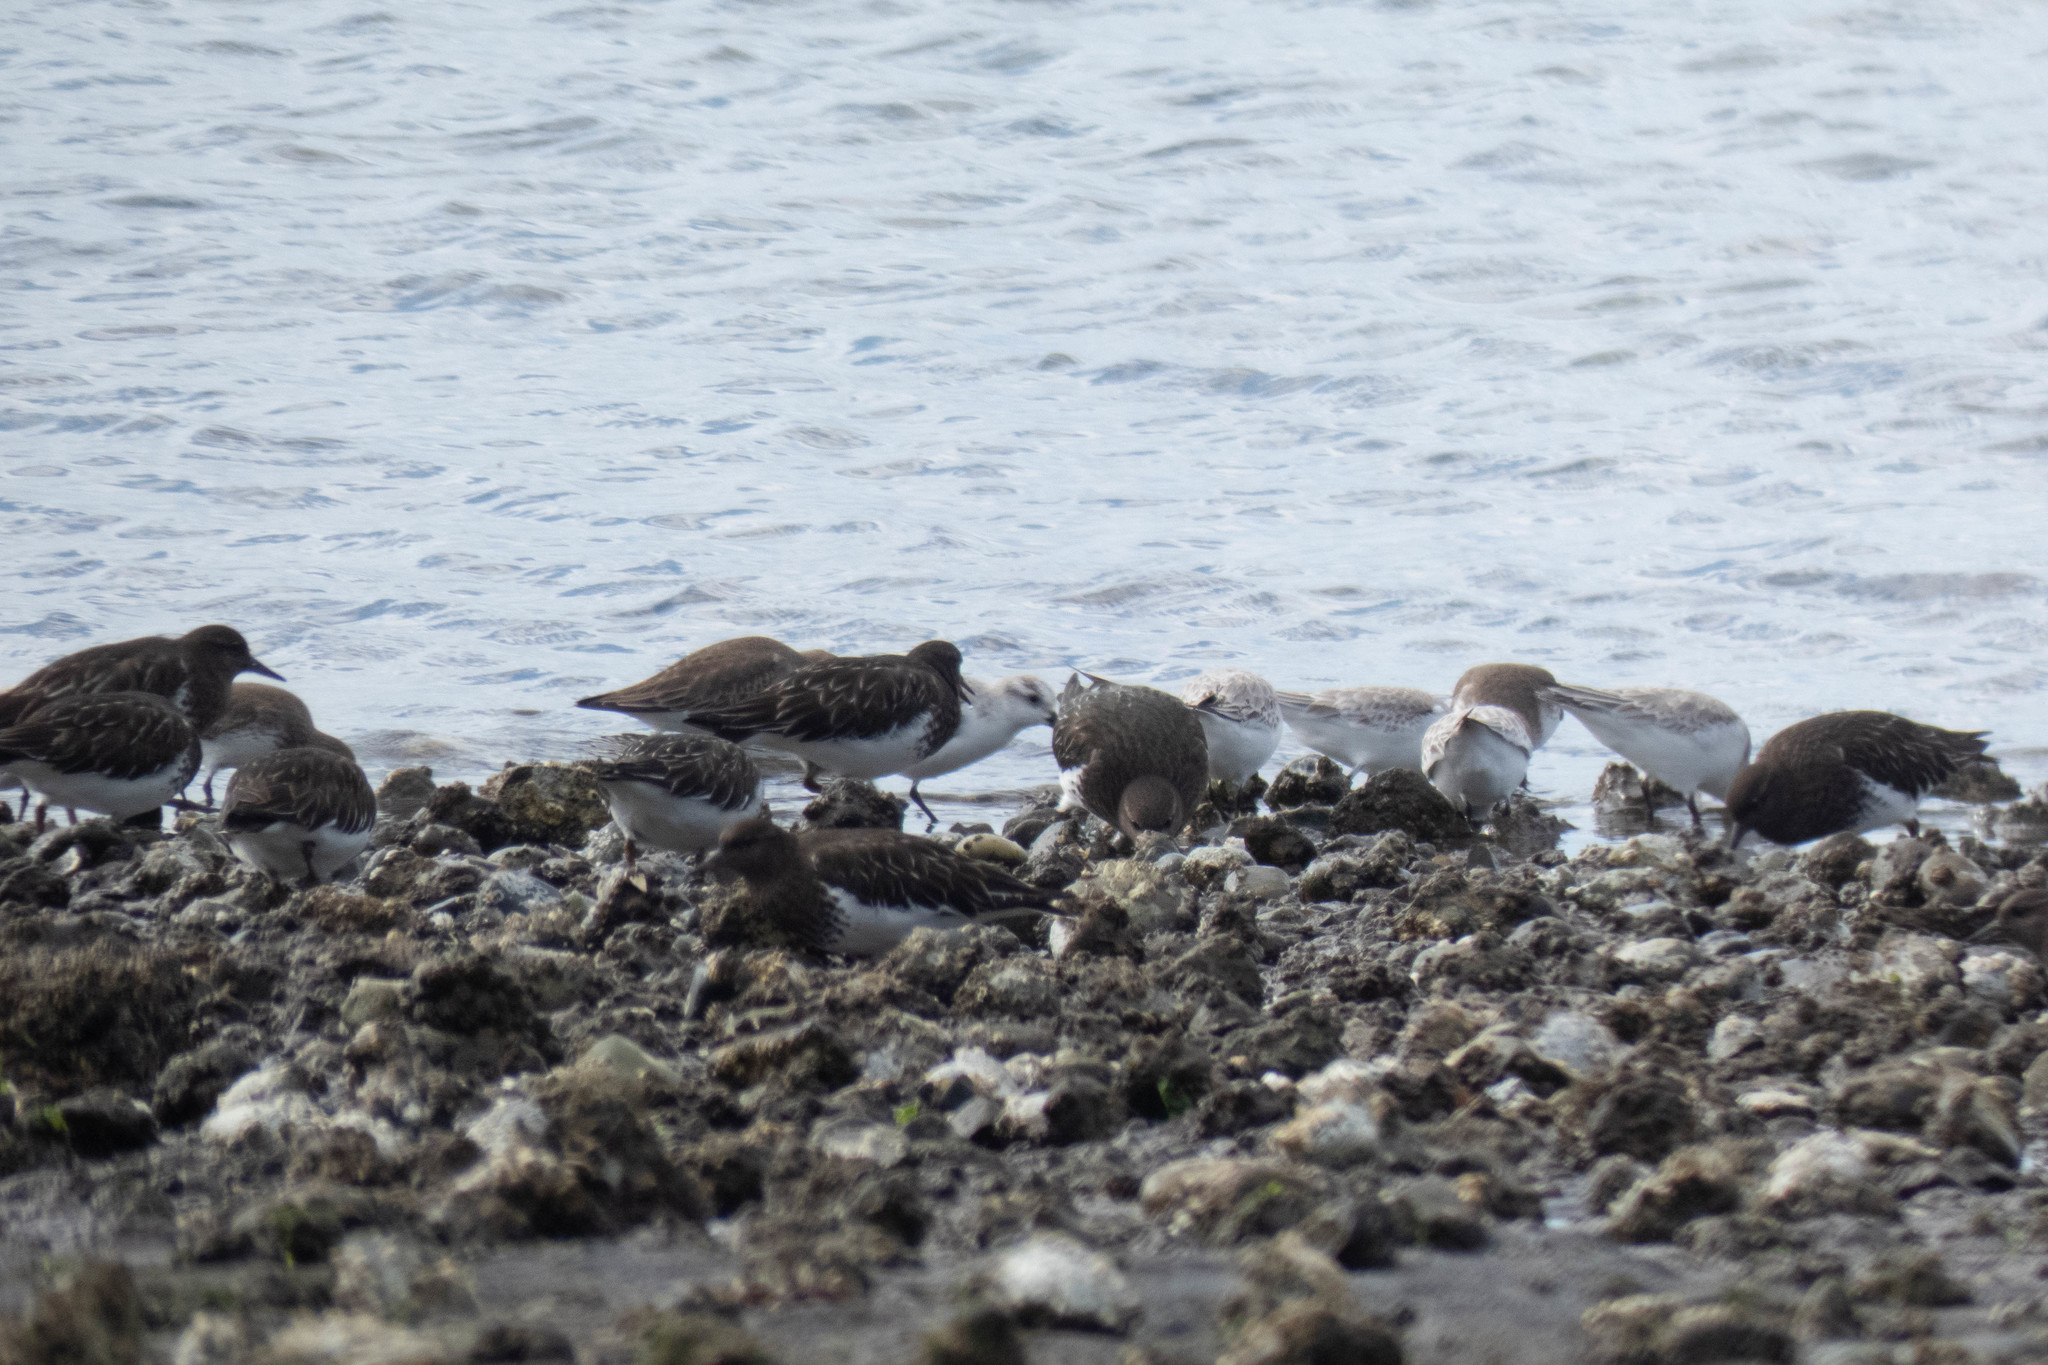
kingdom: Animalia
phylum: Chordata
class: Aves
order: Charadriiformes
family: Scolopacidae
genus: Calidris
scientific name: Calidris alba
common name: Sanderling
